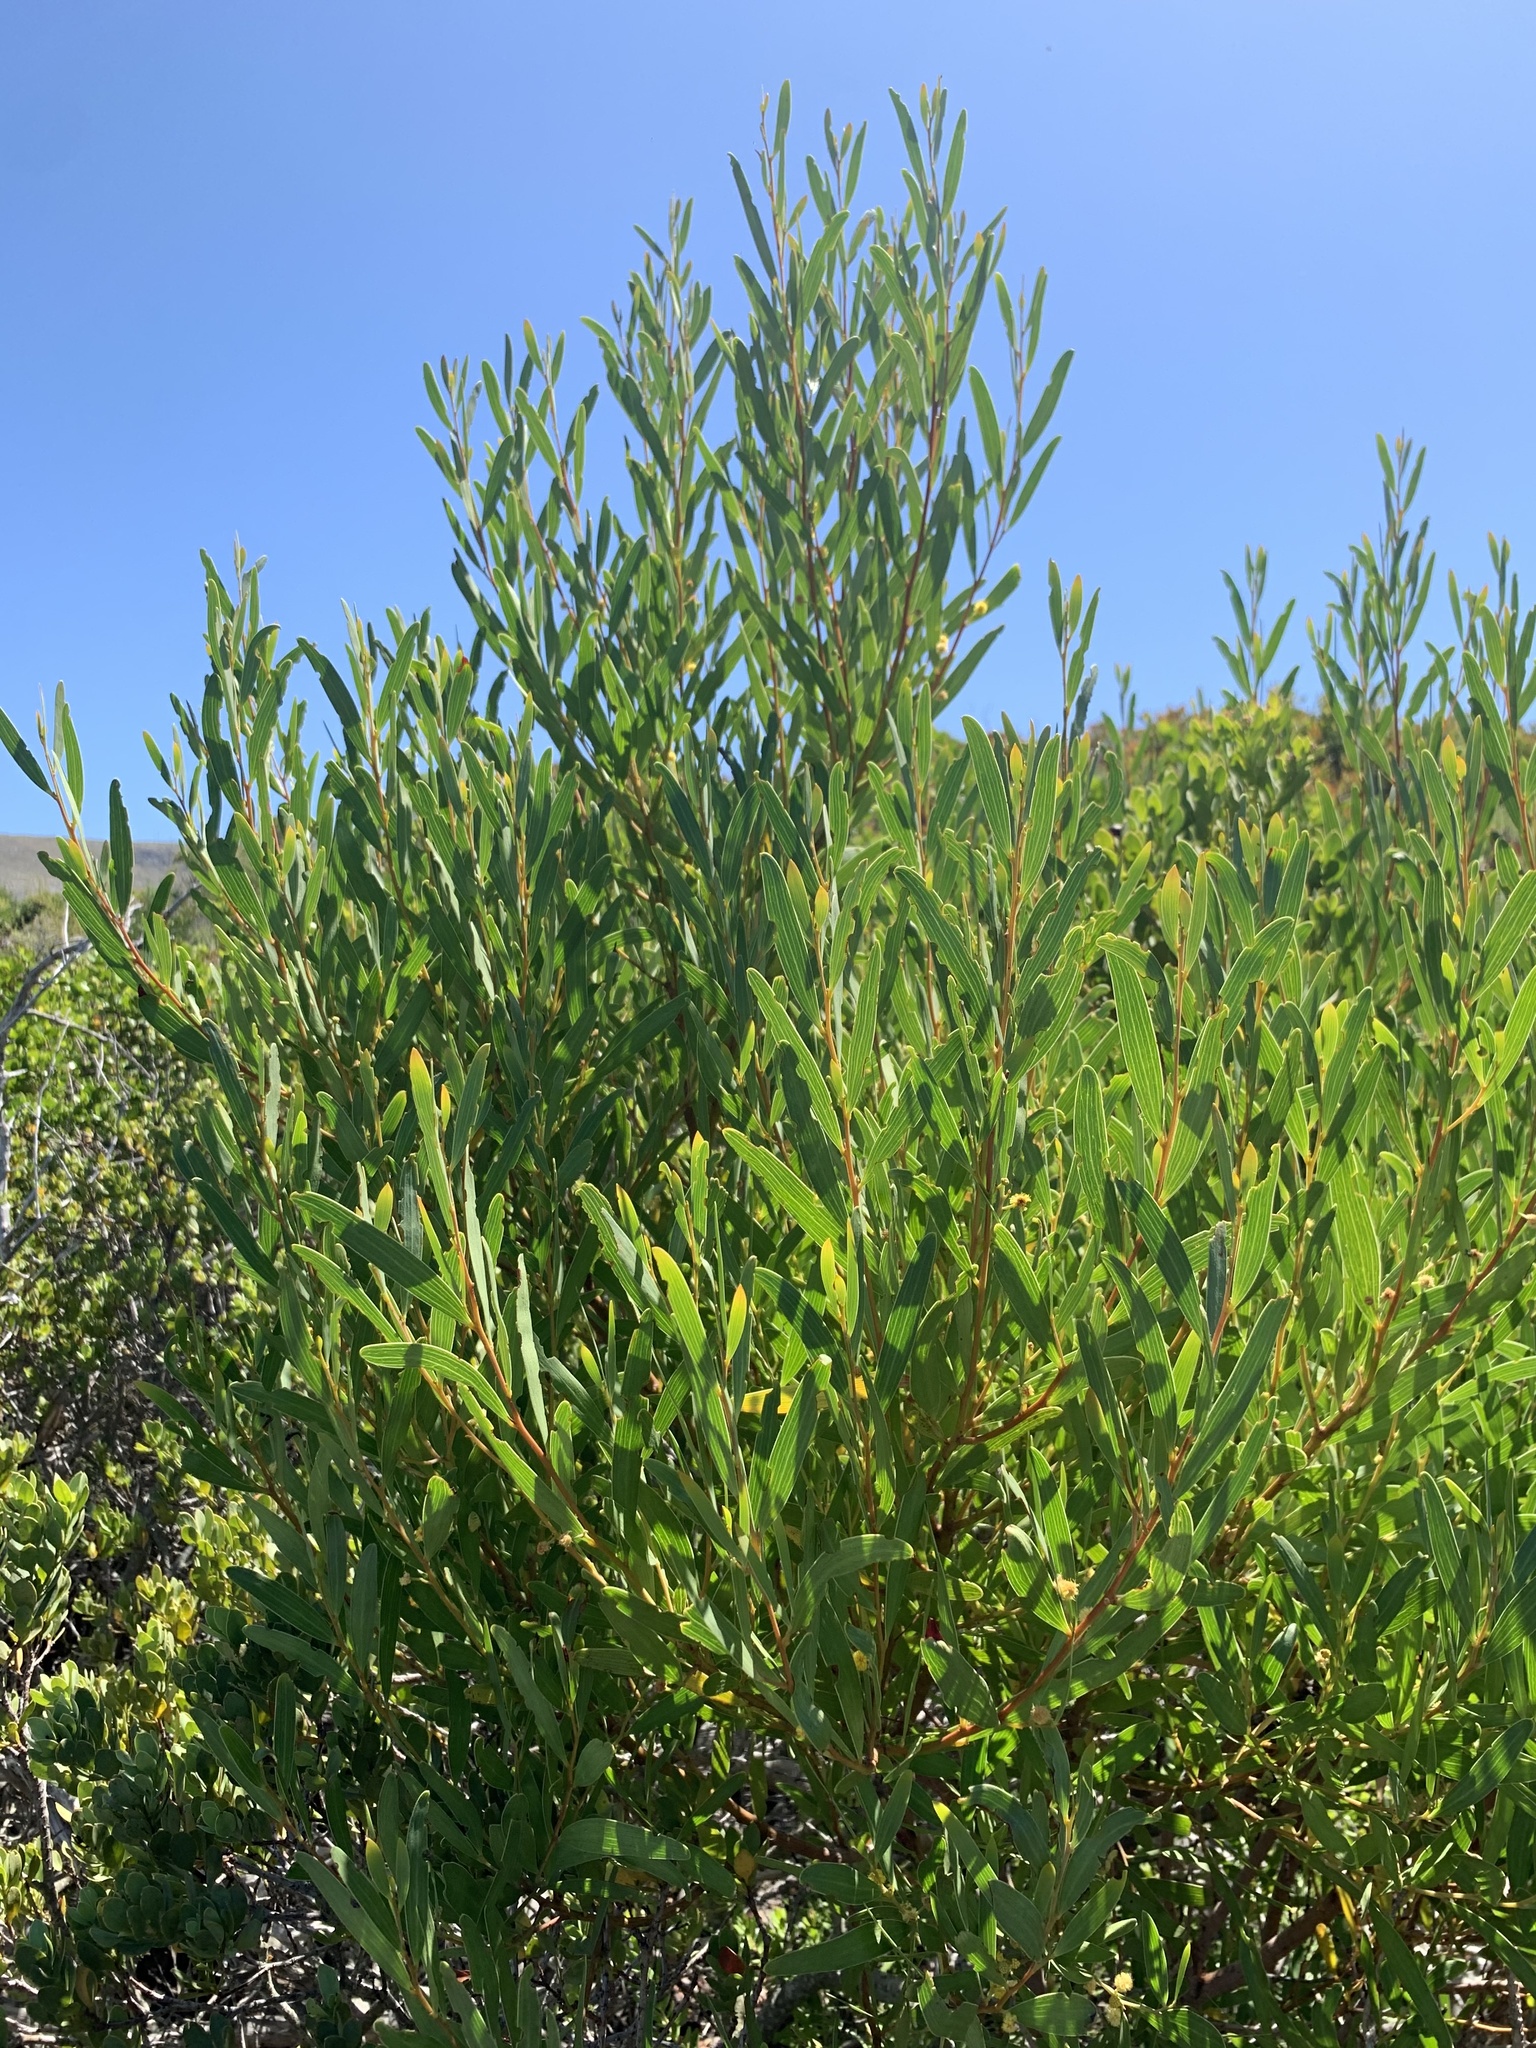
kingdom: Plantae
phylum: Tracheophyta
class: Magnoliopsida
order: Fabales
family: Fabaceae
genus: Acacia
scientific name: Acacia cyclops
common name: Coastal wattle
